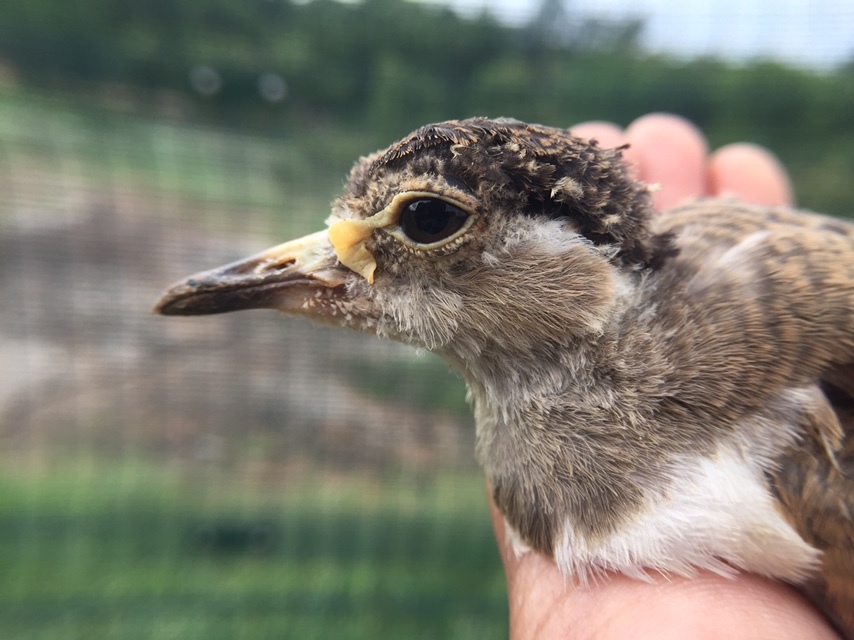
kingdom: Animalia
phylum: Chordata
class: Aves
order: Charadriiformes
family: Charadriidae
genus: Vanellus
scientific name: Vanellus malabaricus
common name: Yellow-wattled lapwing
